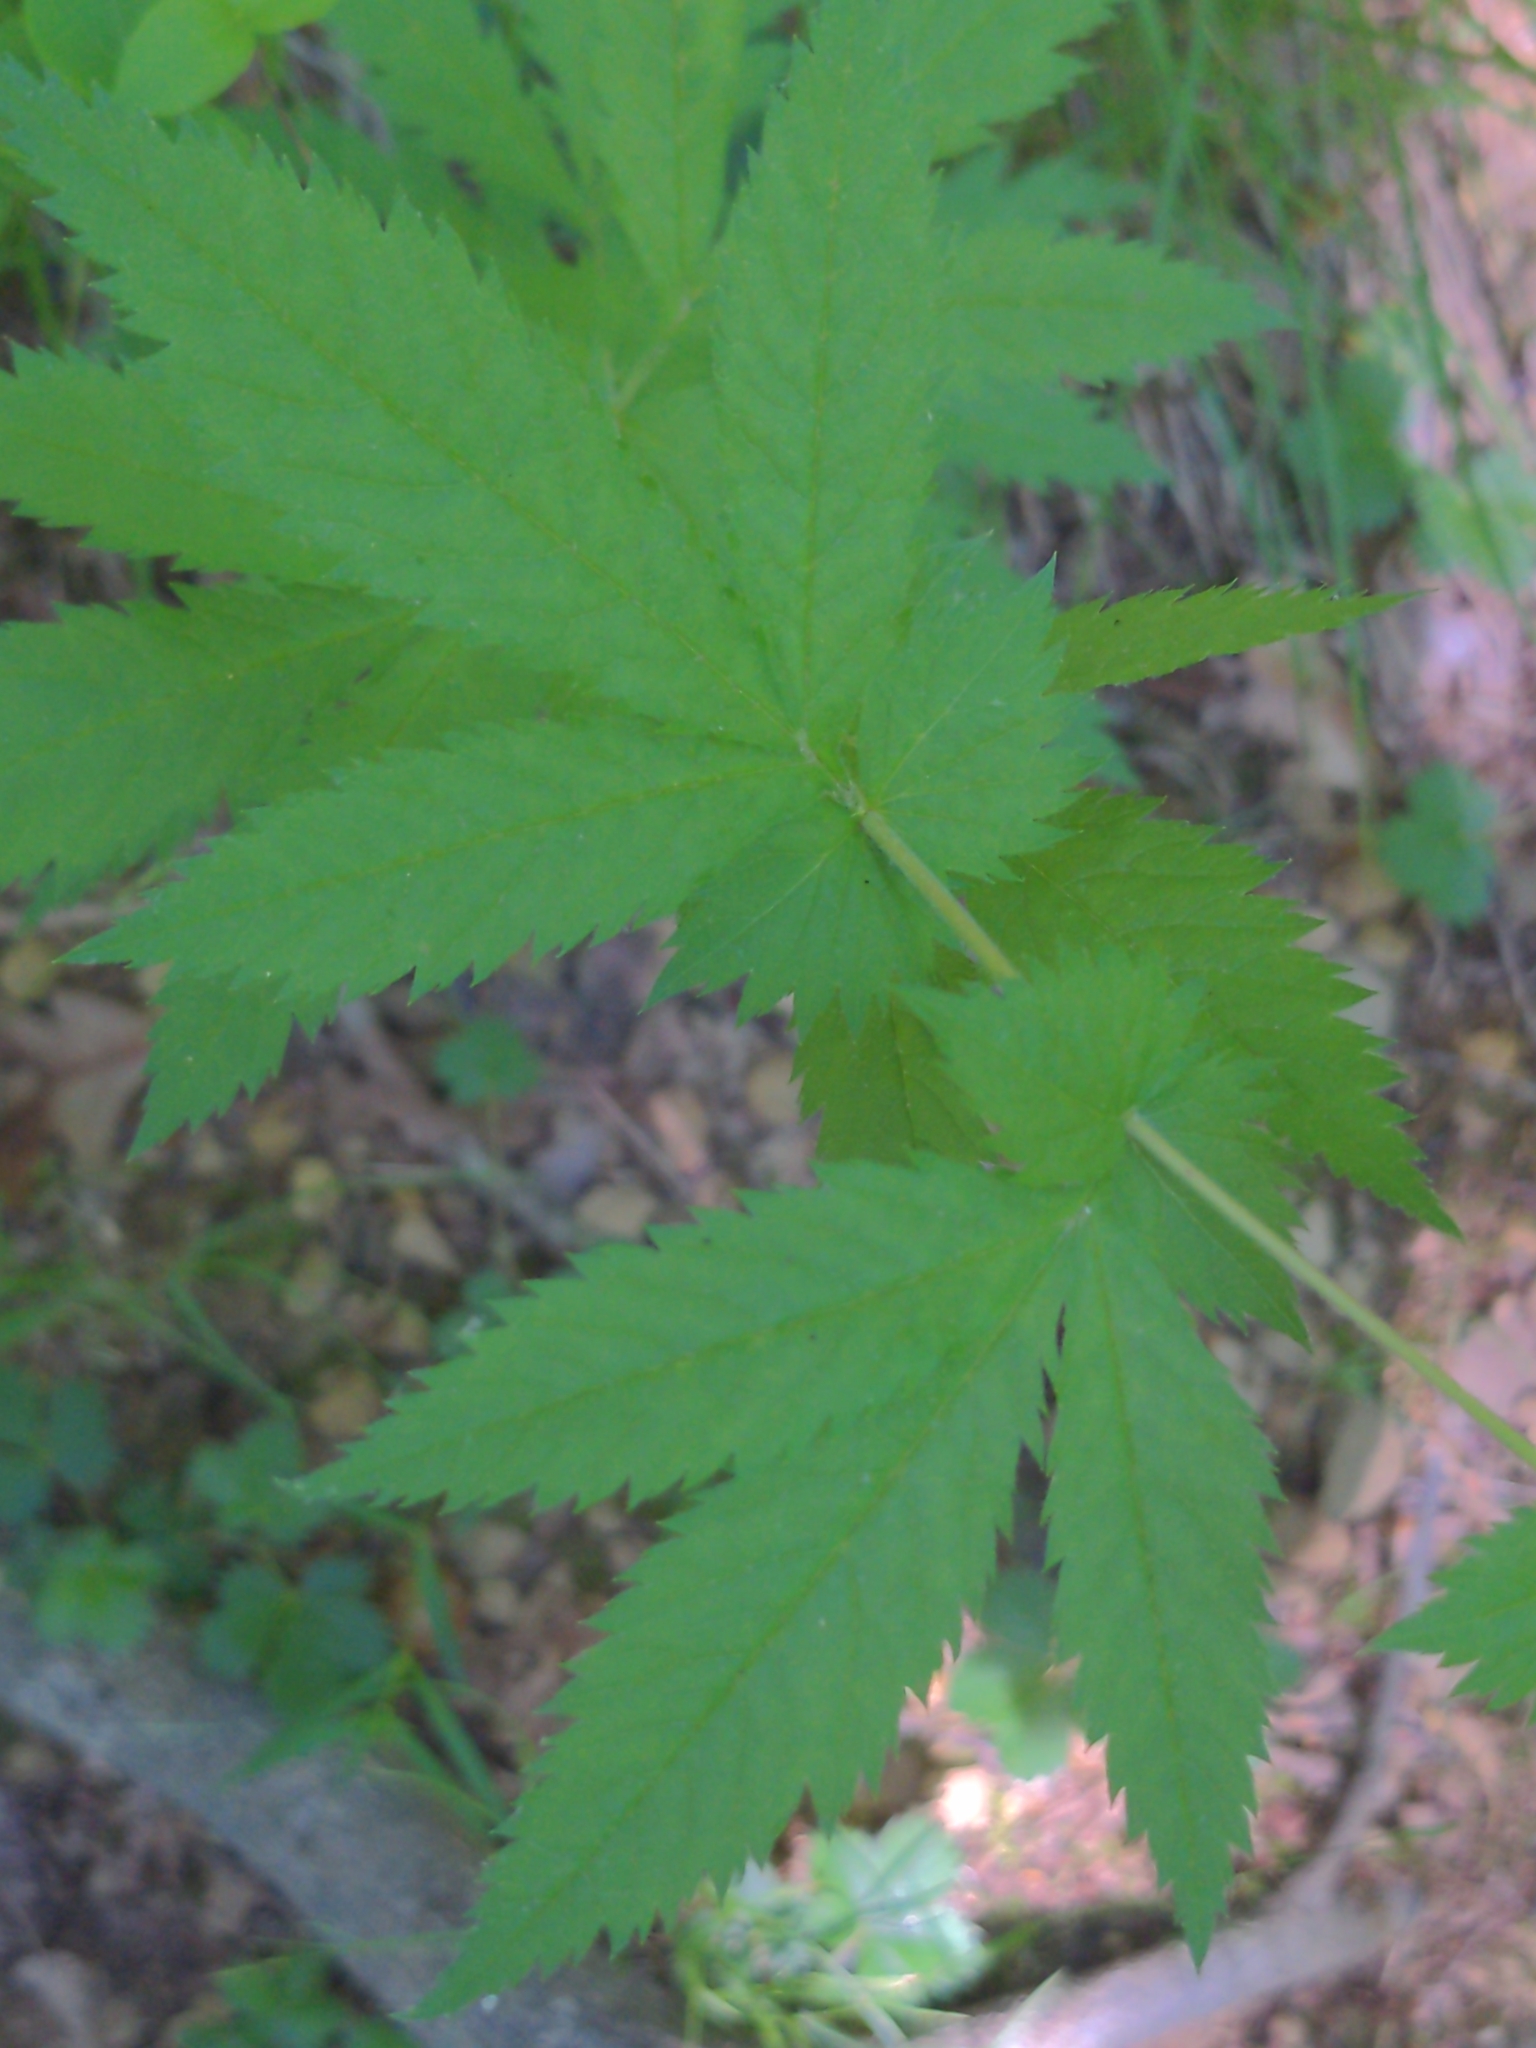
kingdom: Plantae
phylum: Tracheophyta
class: Magnoliopsida
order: Rosales
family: Rosaceae
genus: Gillenia
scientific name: Gillenia stipulata
